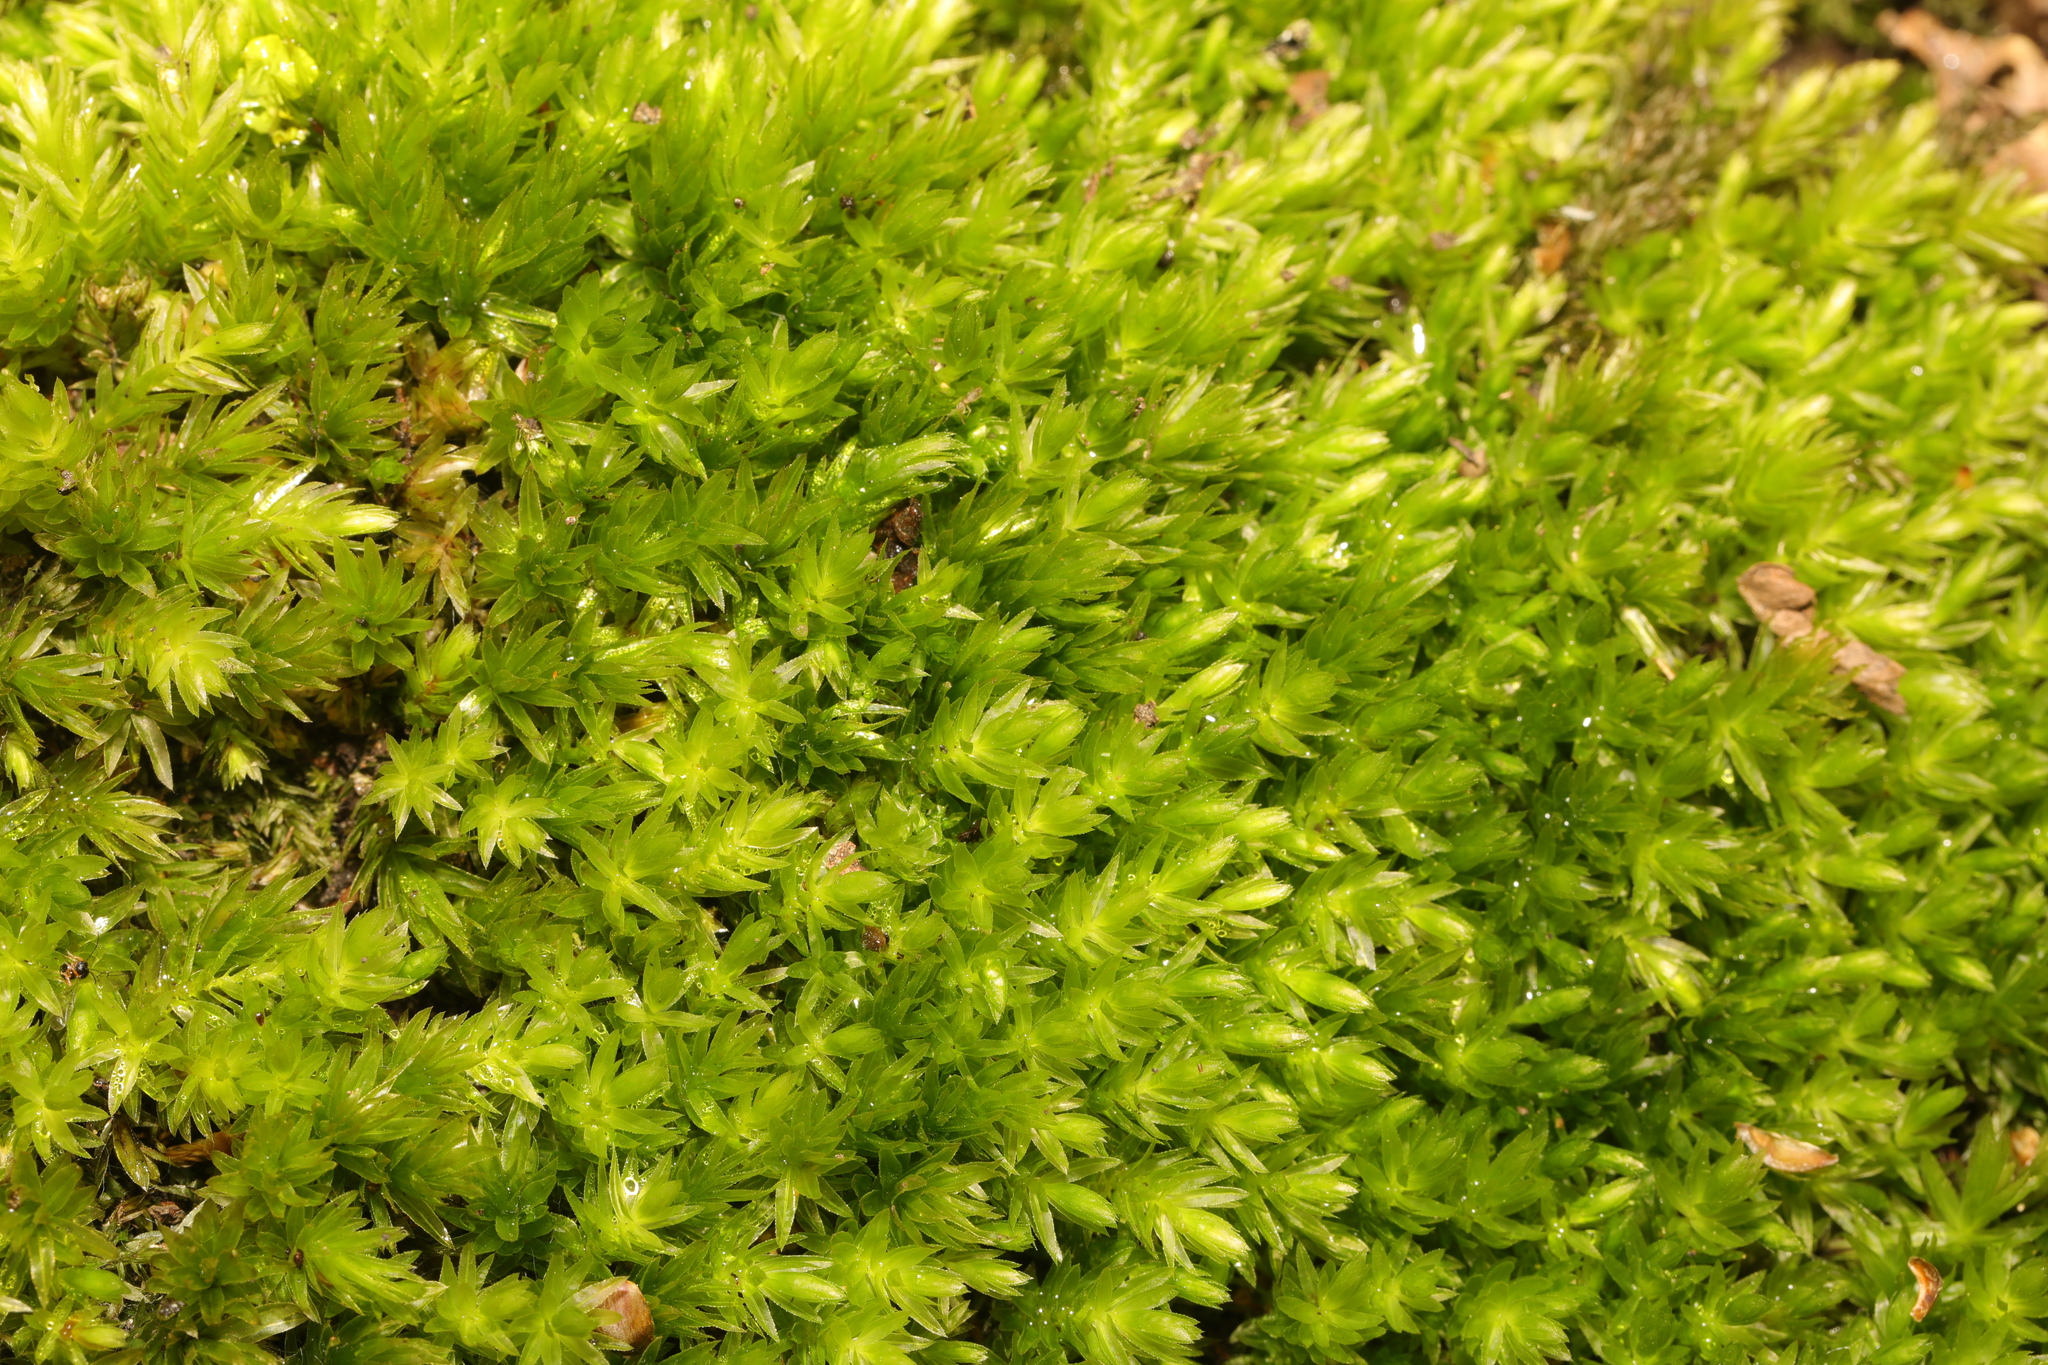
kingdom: Plantae
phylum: Bryophyta
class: Bryopsida
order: Bryales
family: Mniaceae
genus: Mnium
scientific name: Mnium hornum
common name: Swan's-neck leafy moss
